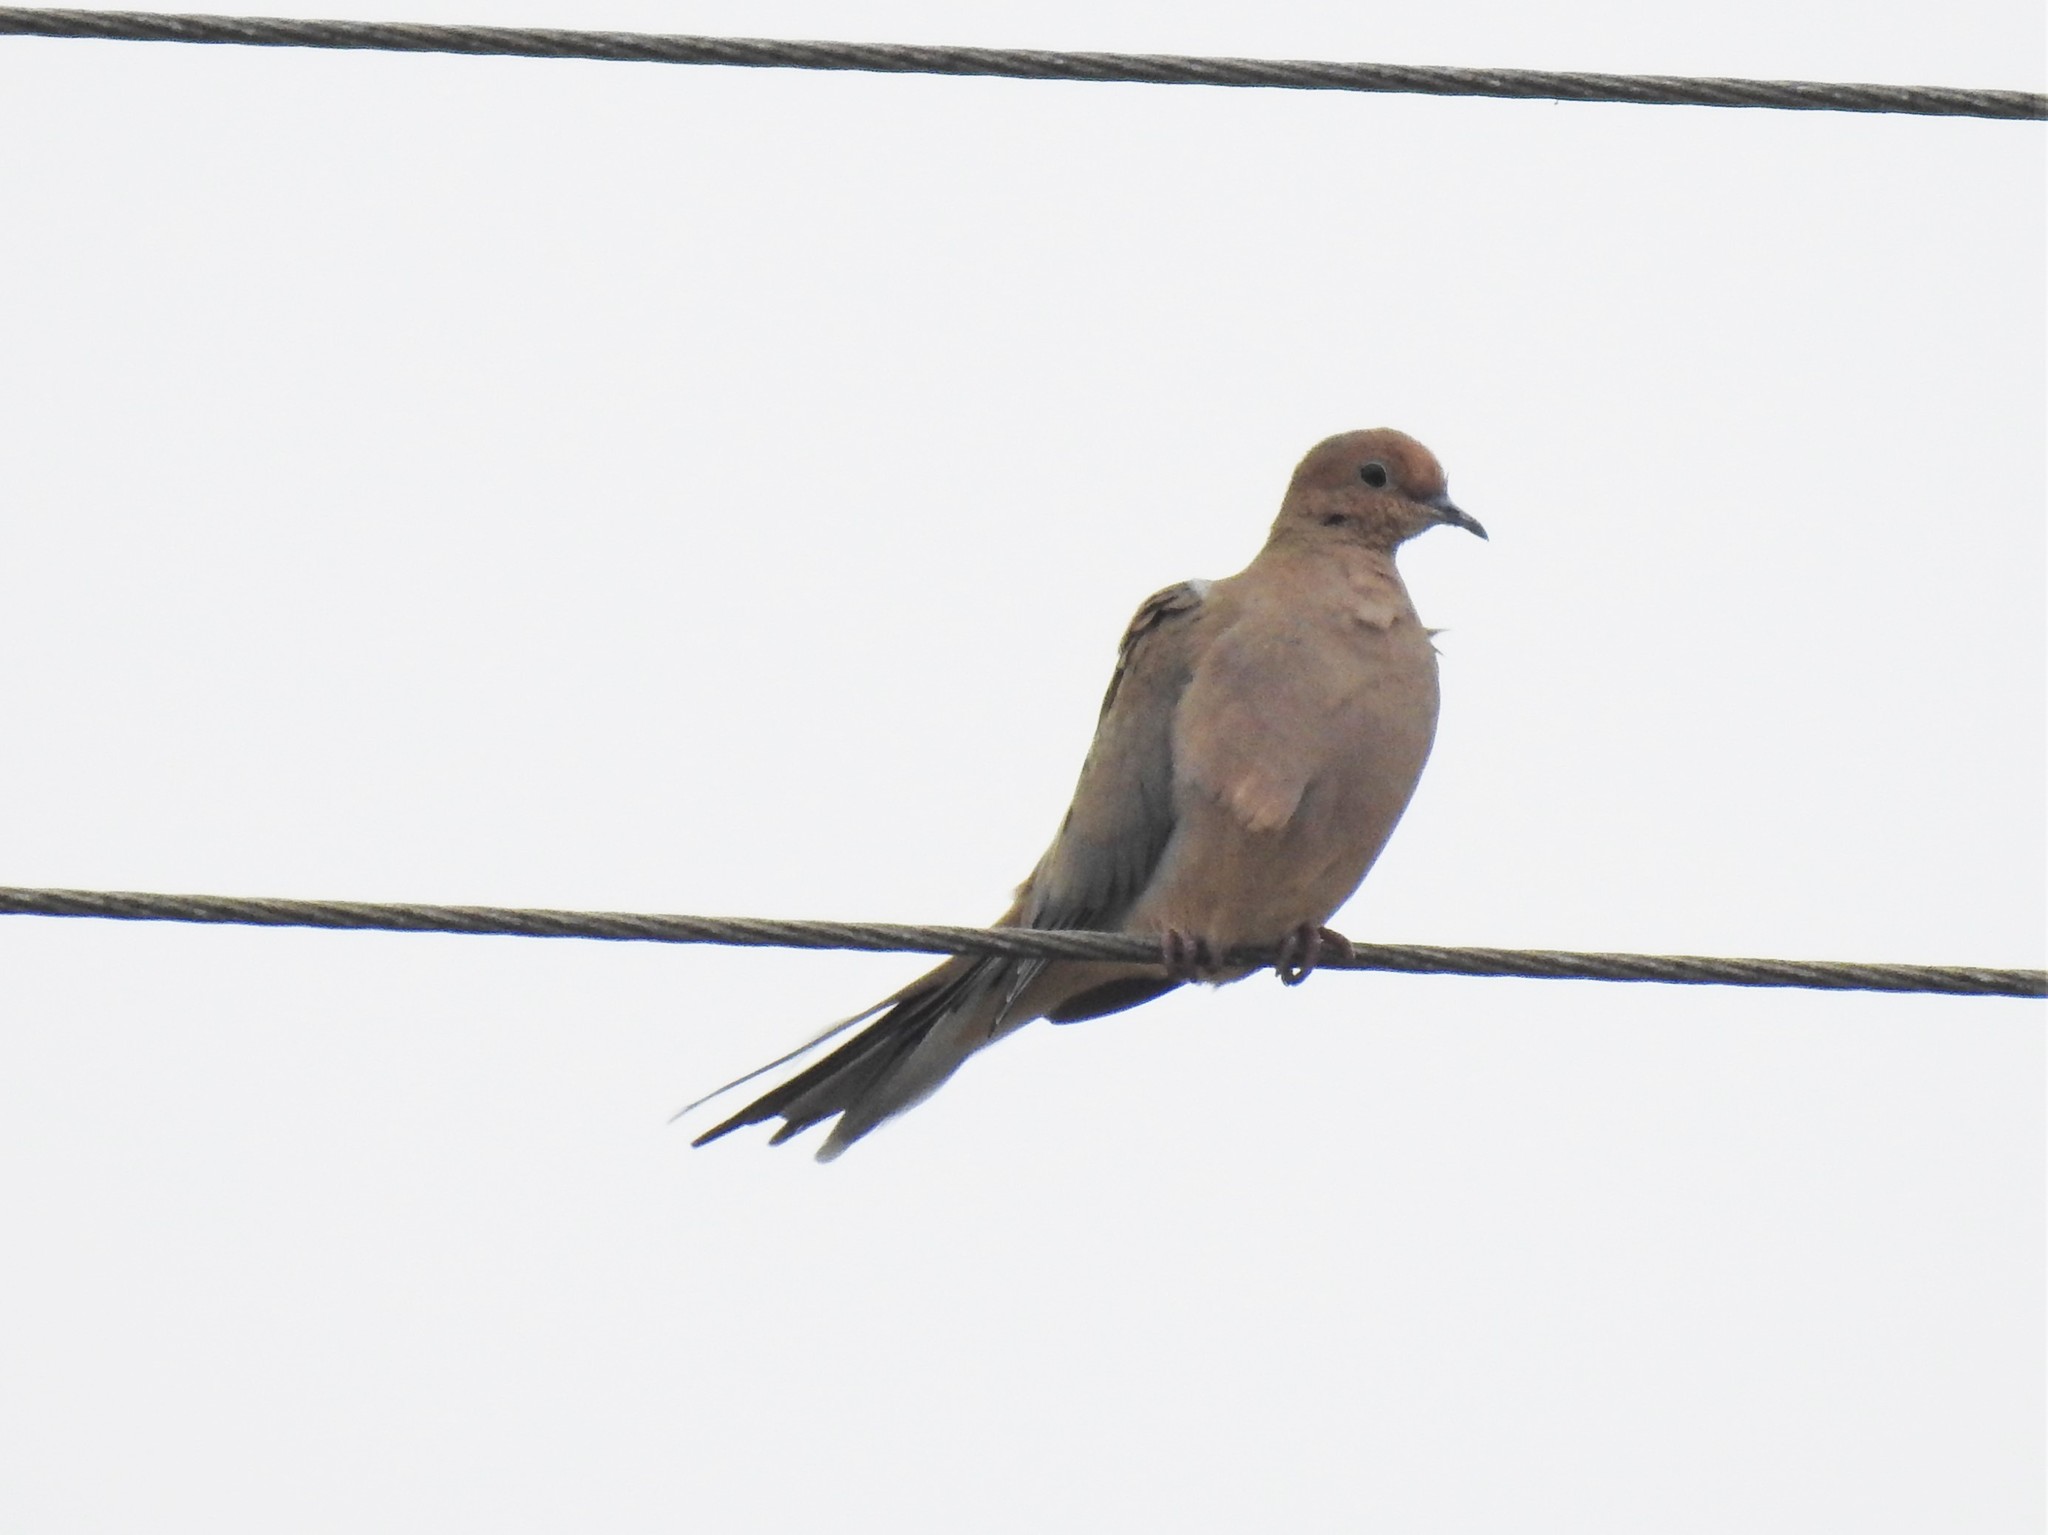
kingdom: Animalia
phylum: Chordata
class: Aves
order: Columbiformes
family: Columbidae
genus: Zenaida
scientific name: Zenaida macroura
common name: Mourning dove
